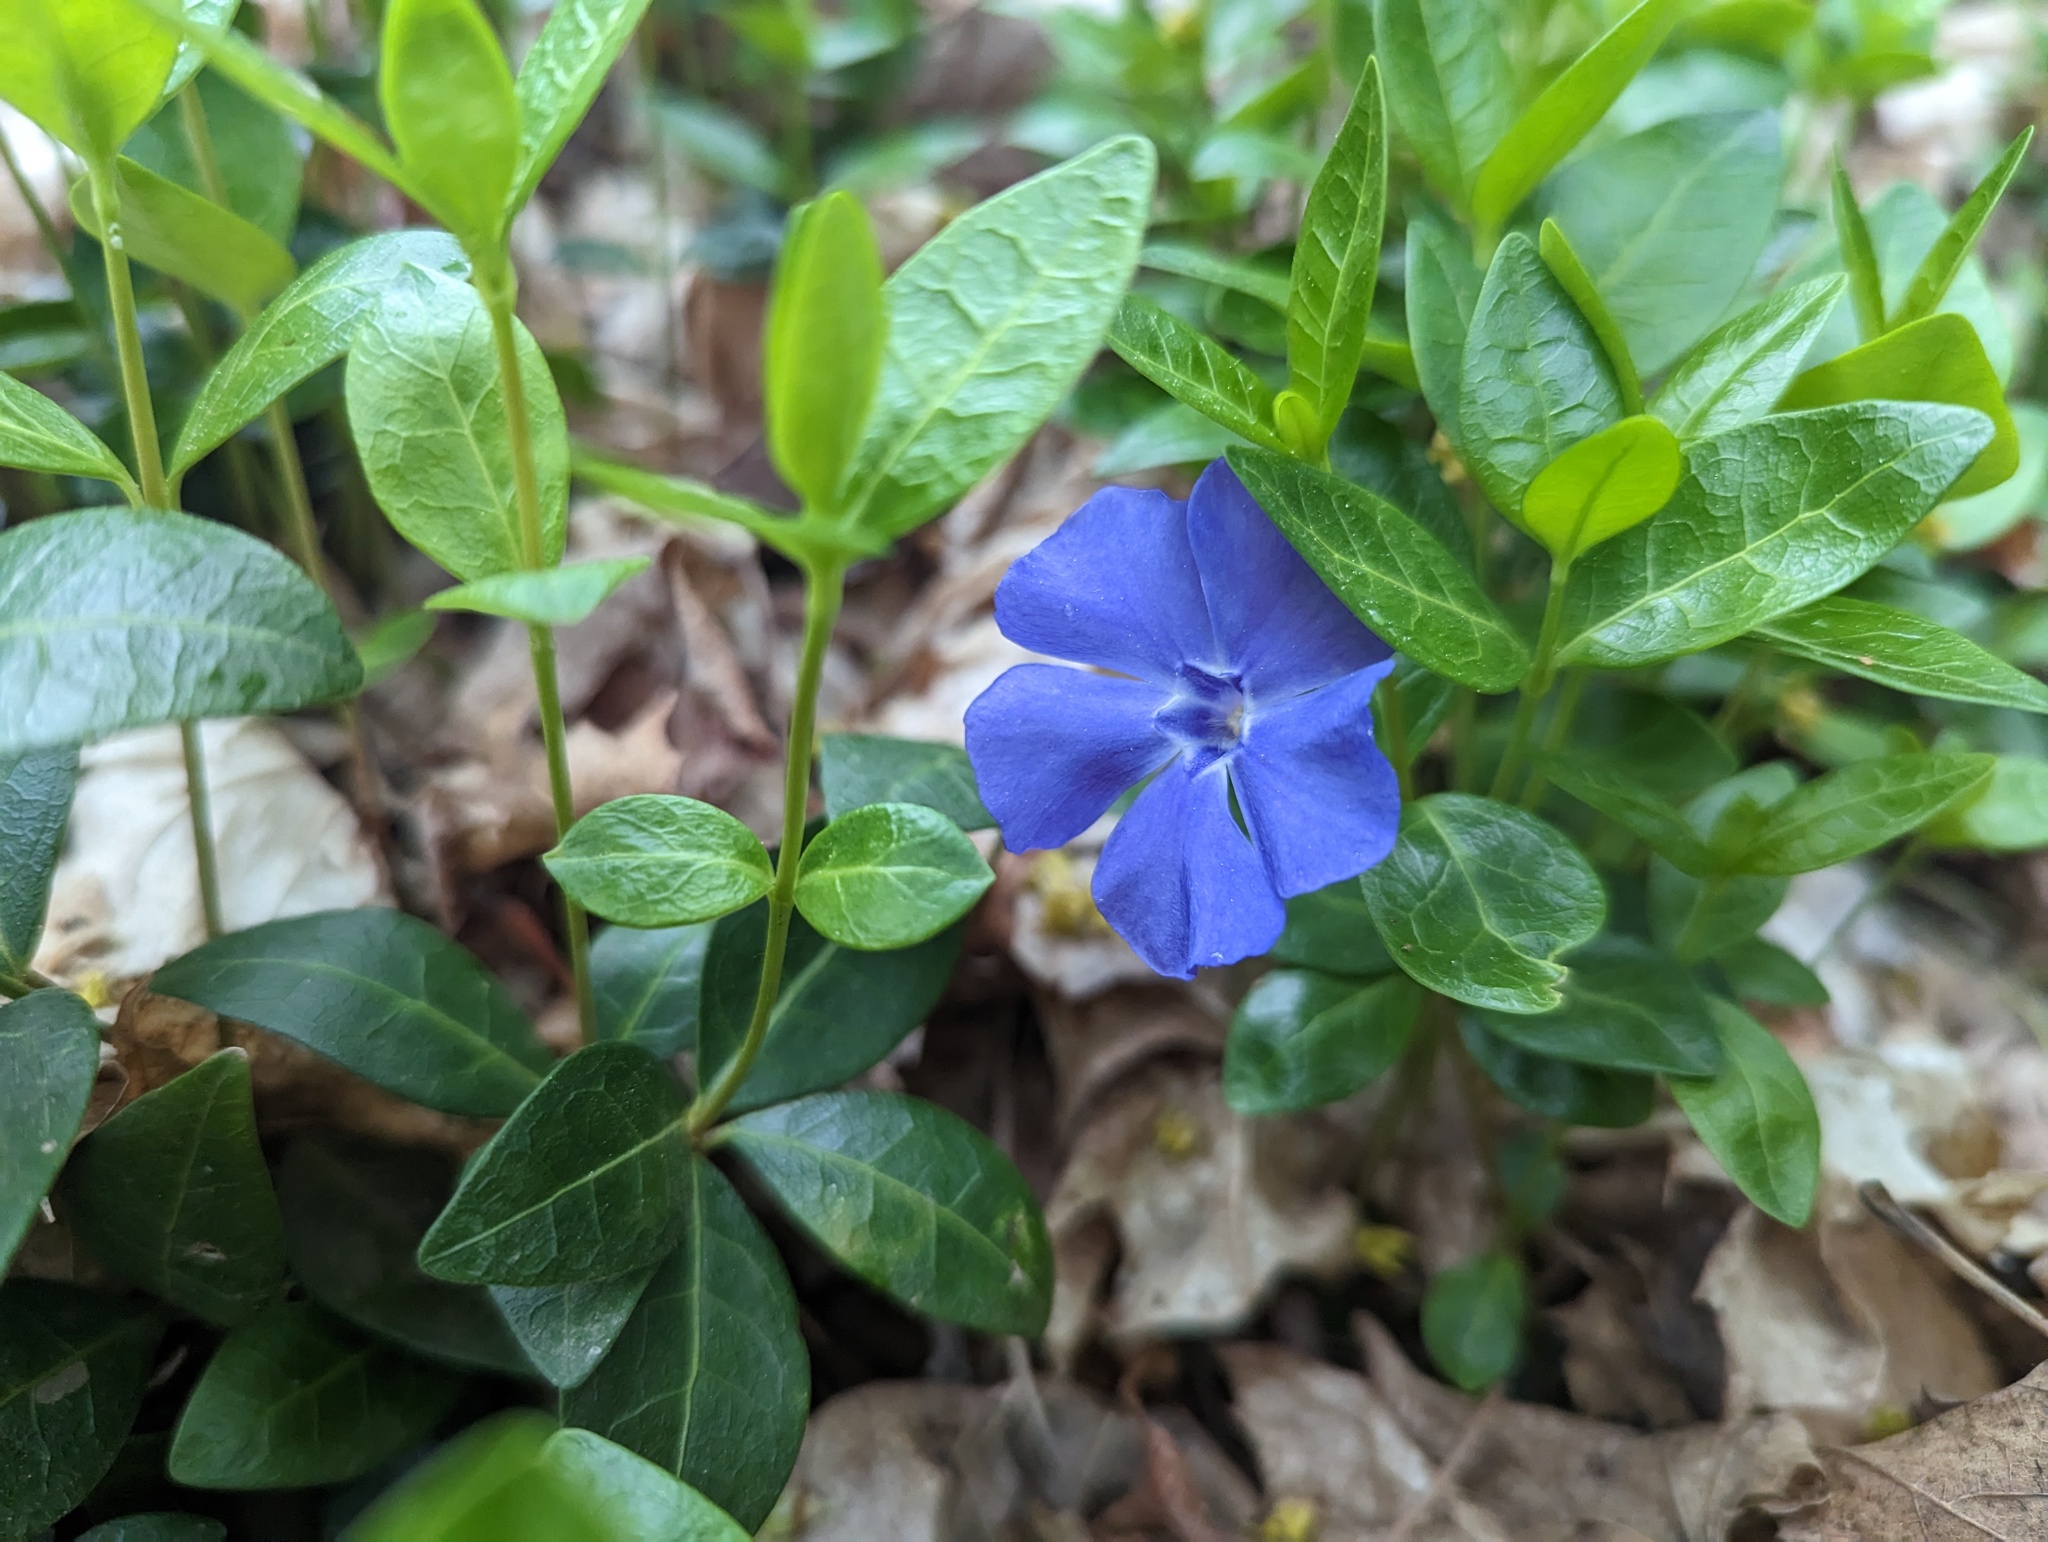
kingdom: Plantae
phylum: Tracheophyta
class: Magnoliopsida
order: Gentianales
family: Apocynaceae
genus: Vinca
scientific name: Vinca minor
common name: Lesser periwinkle
